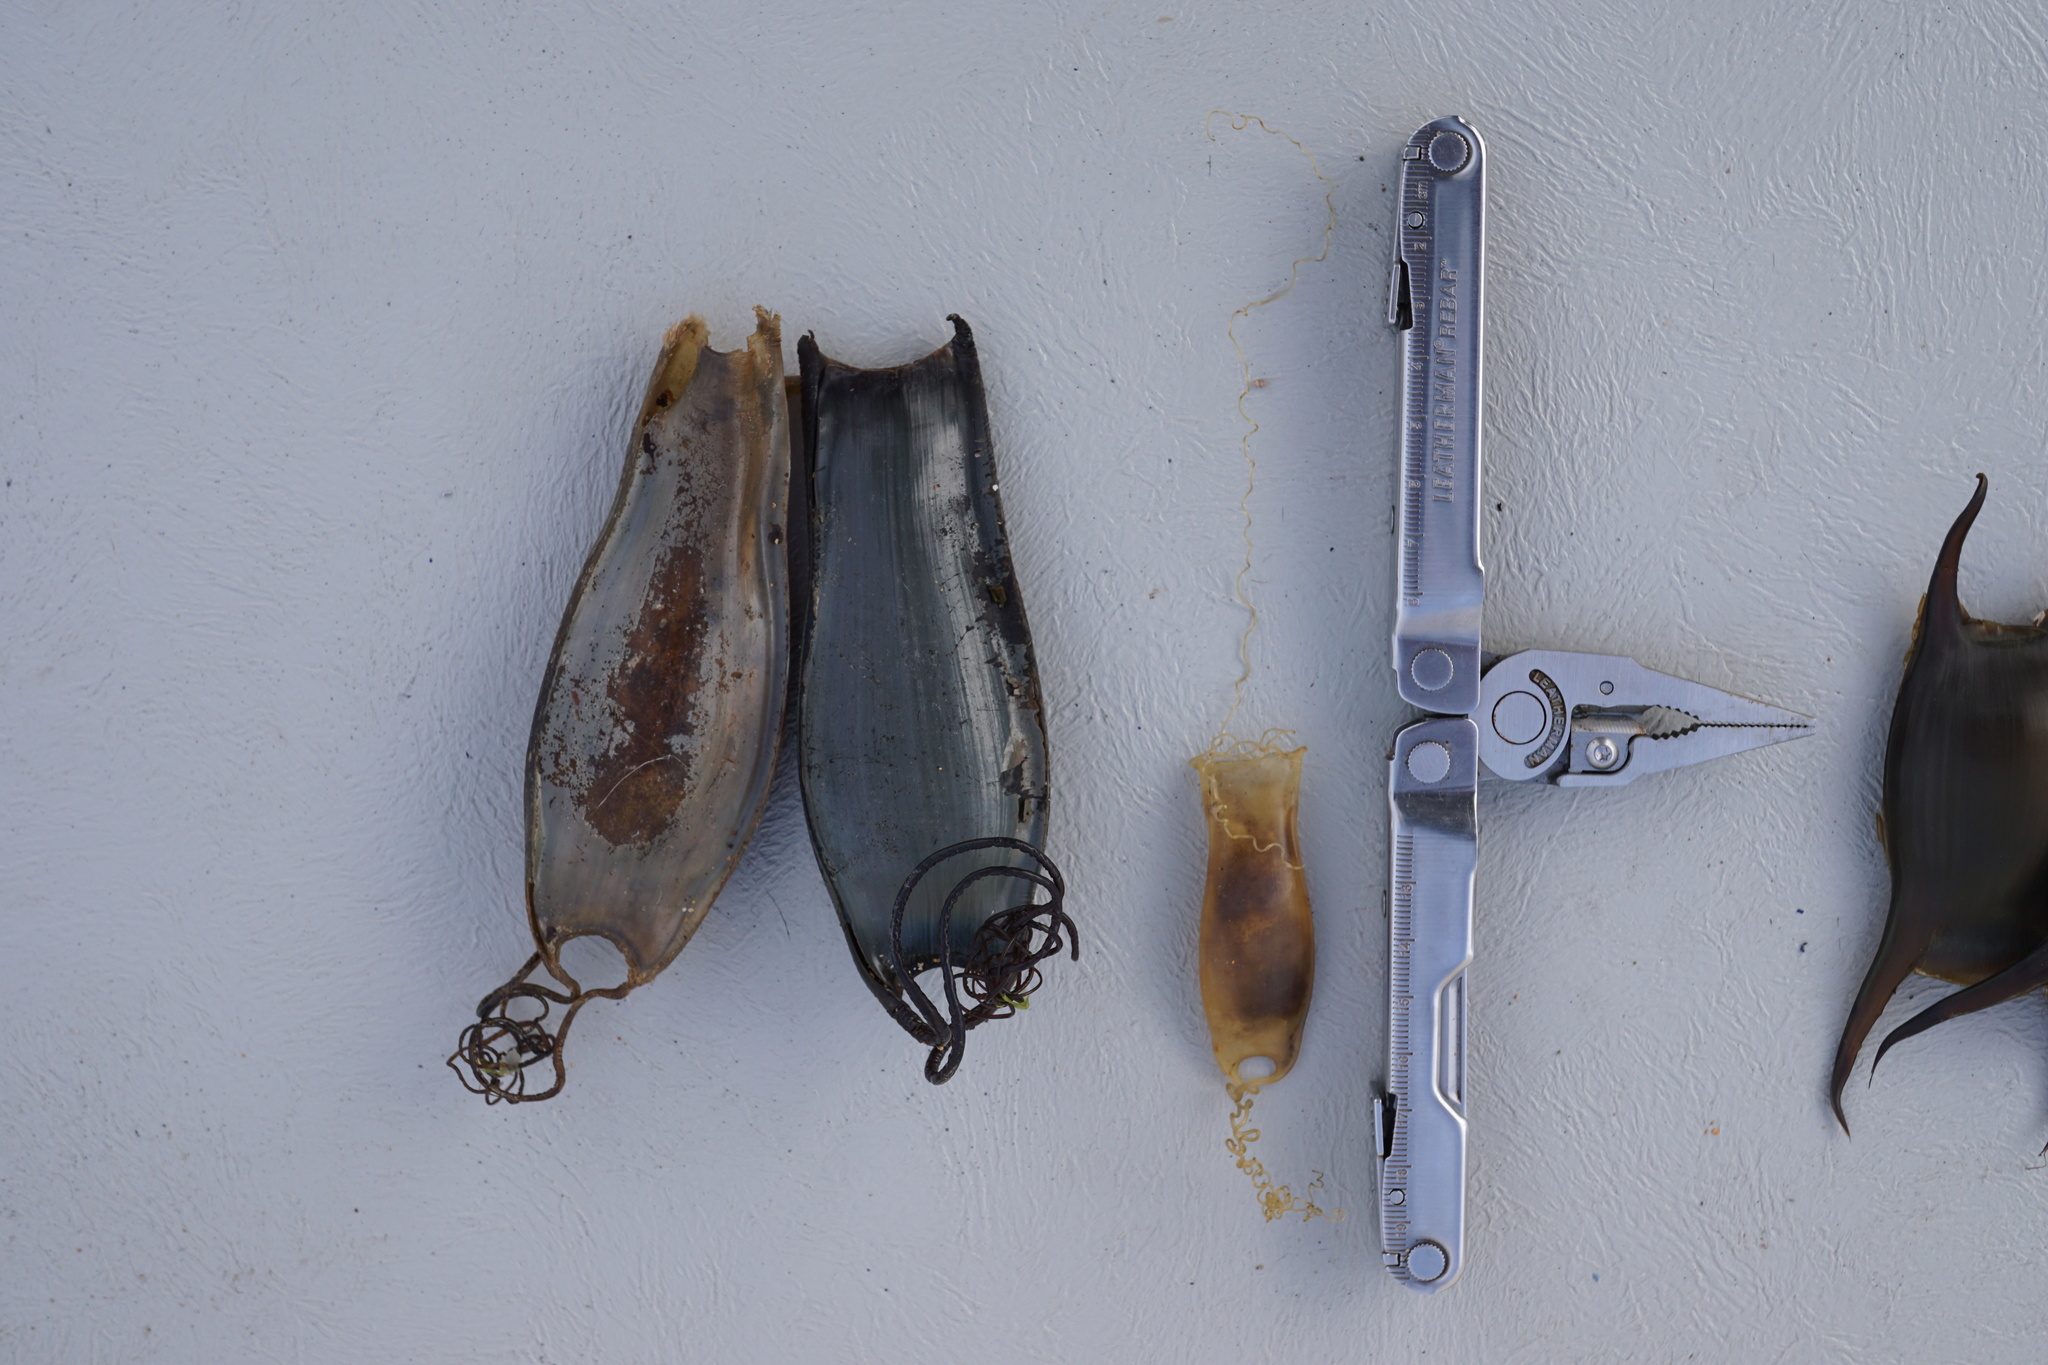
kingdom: Animalia
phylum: Chordata
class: Elasmobranchii
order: Carcharhiniformes
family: Scyliorhinidae
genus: Scyliorhinus
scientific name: Scyliorhinus canicula
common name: Lesser spotted dogfish
